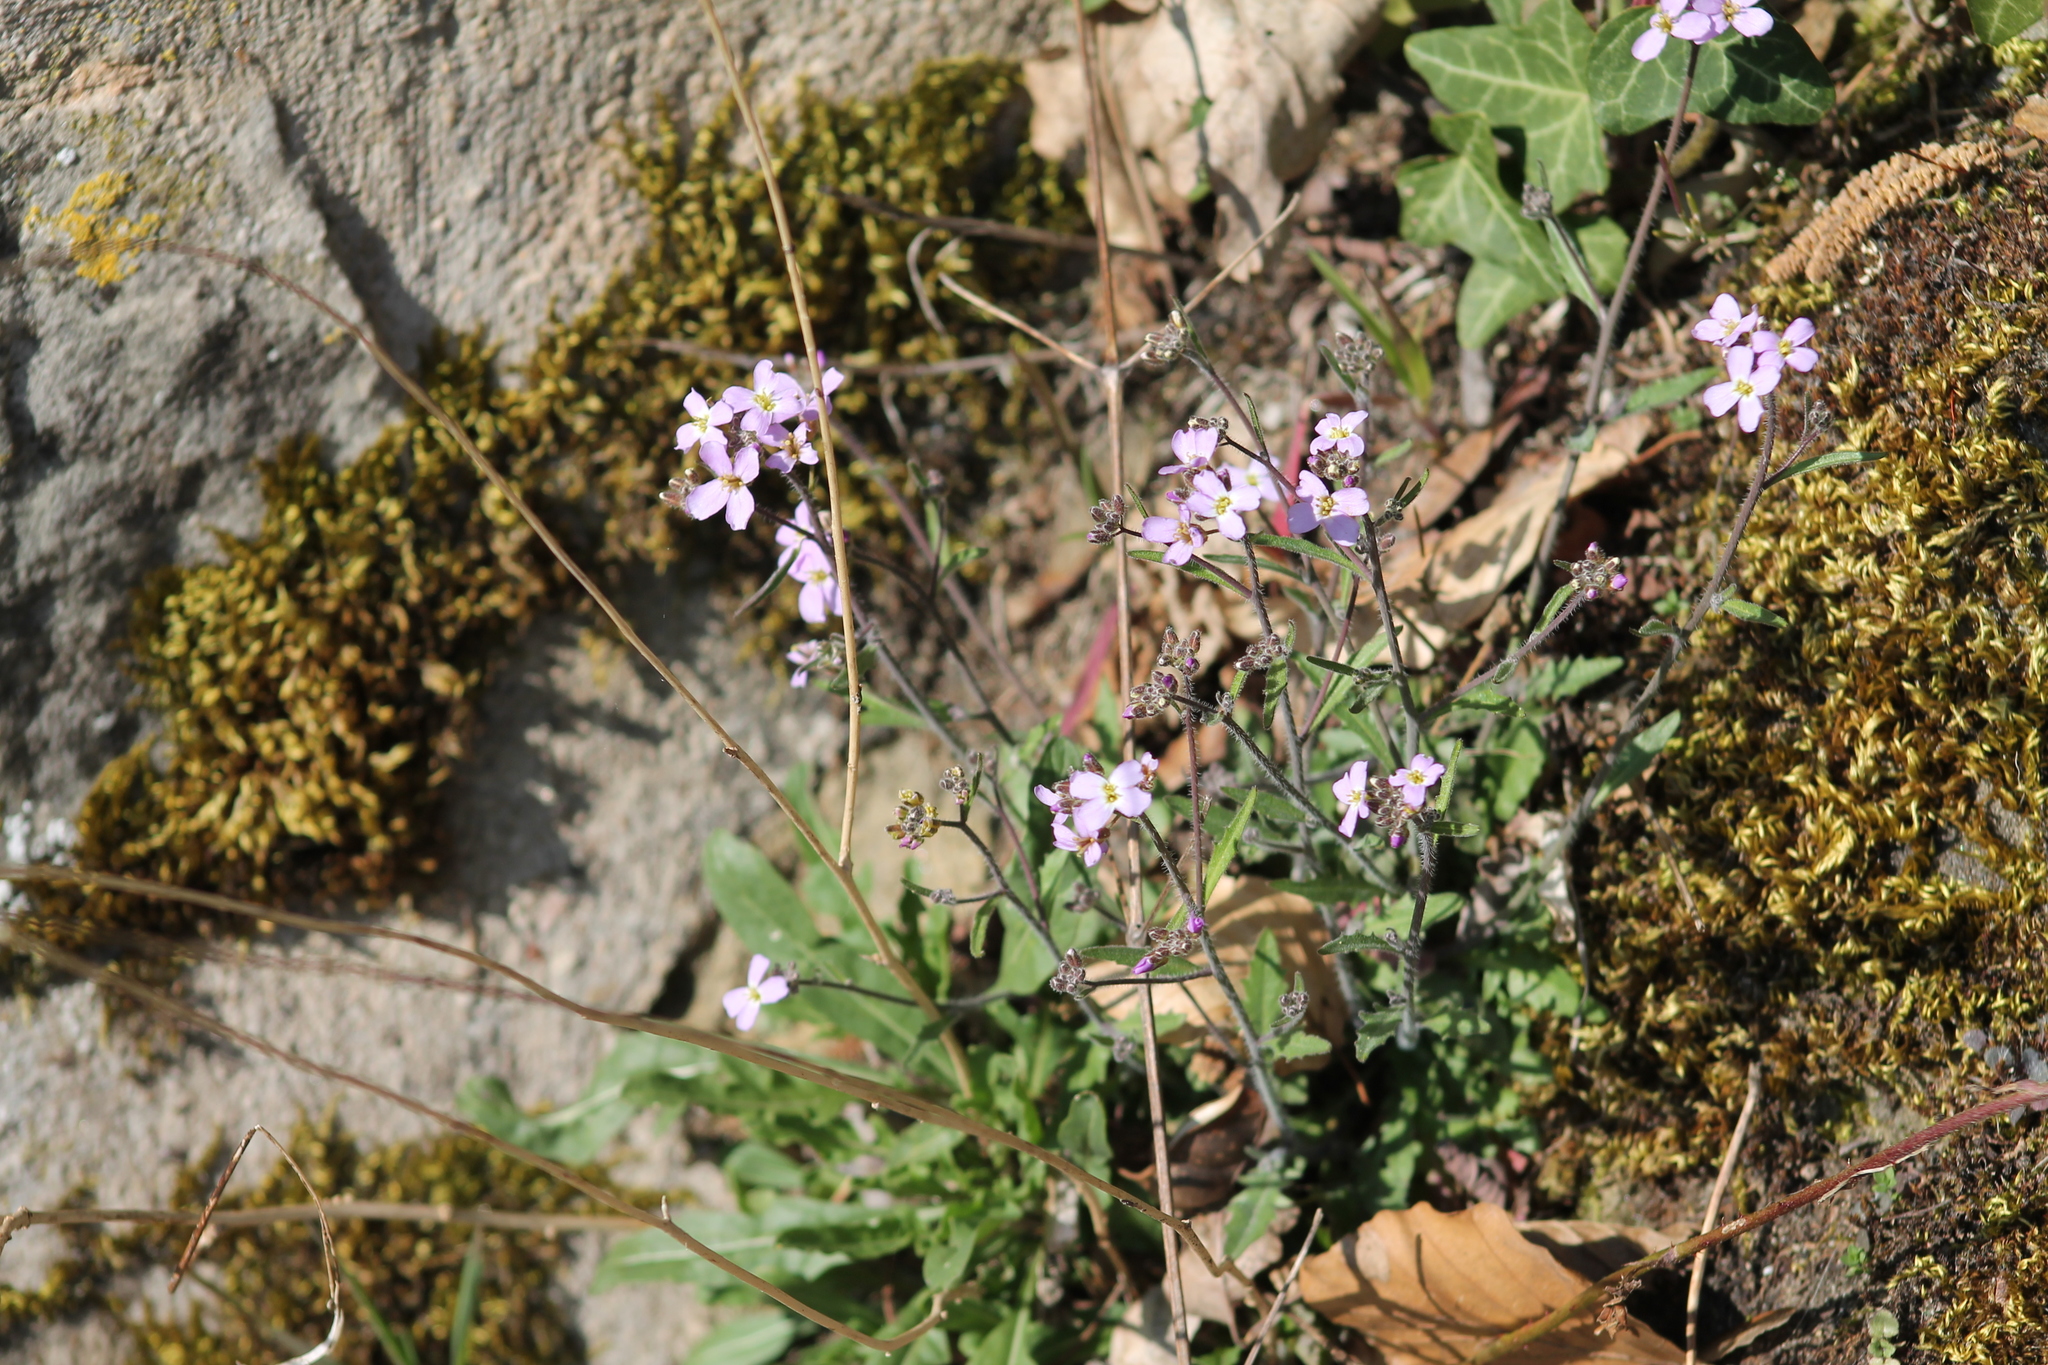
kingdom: Plantae
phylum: Tracheophyta
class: Magnoliopsida
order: Brassicales
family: Brassicaceae
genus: Arabidopsis
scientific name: Arabidopsis arenosa
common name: Sand rock-cress
